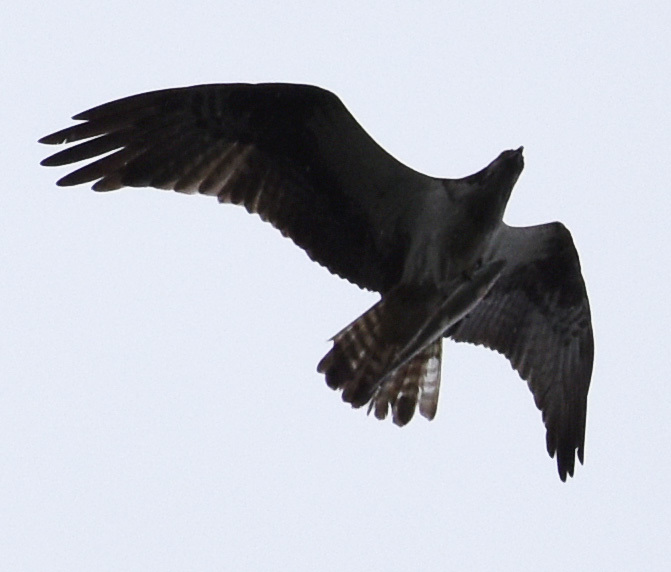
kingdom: Animalia
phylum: Chordata
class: Aves
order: Accipitriformes
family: Pandionidae
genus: Pandion
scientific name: Pandion haliaetus
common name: Osprey
